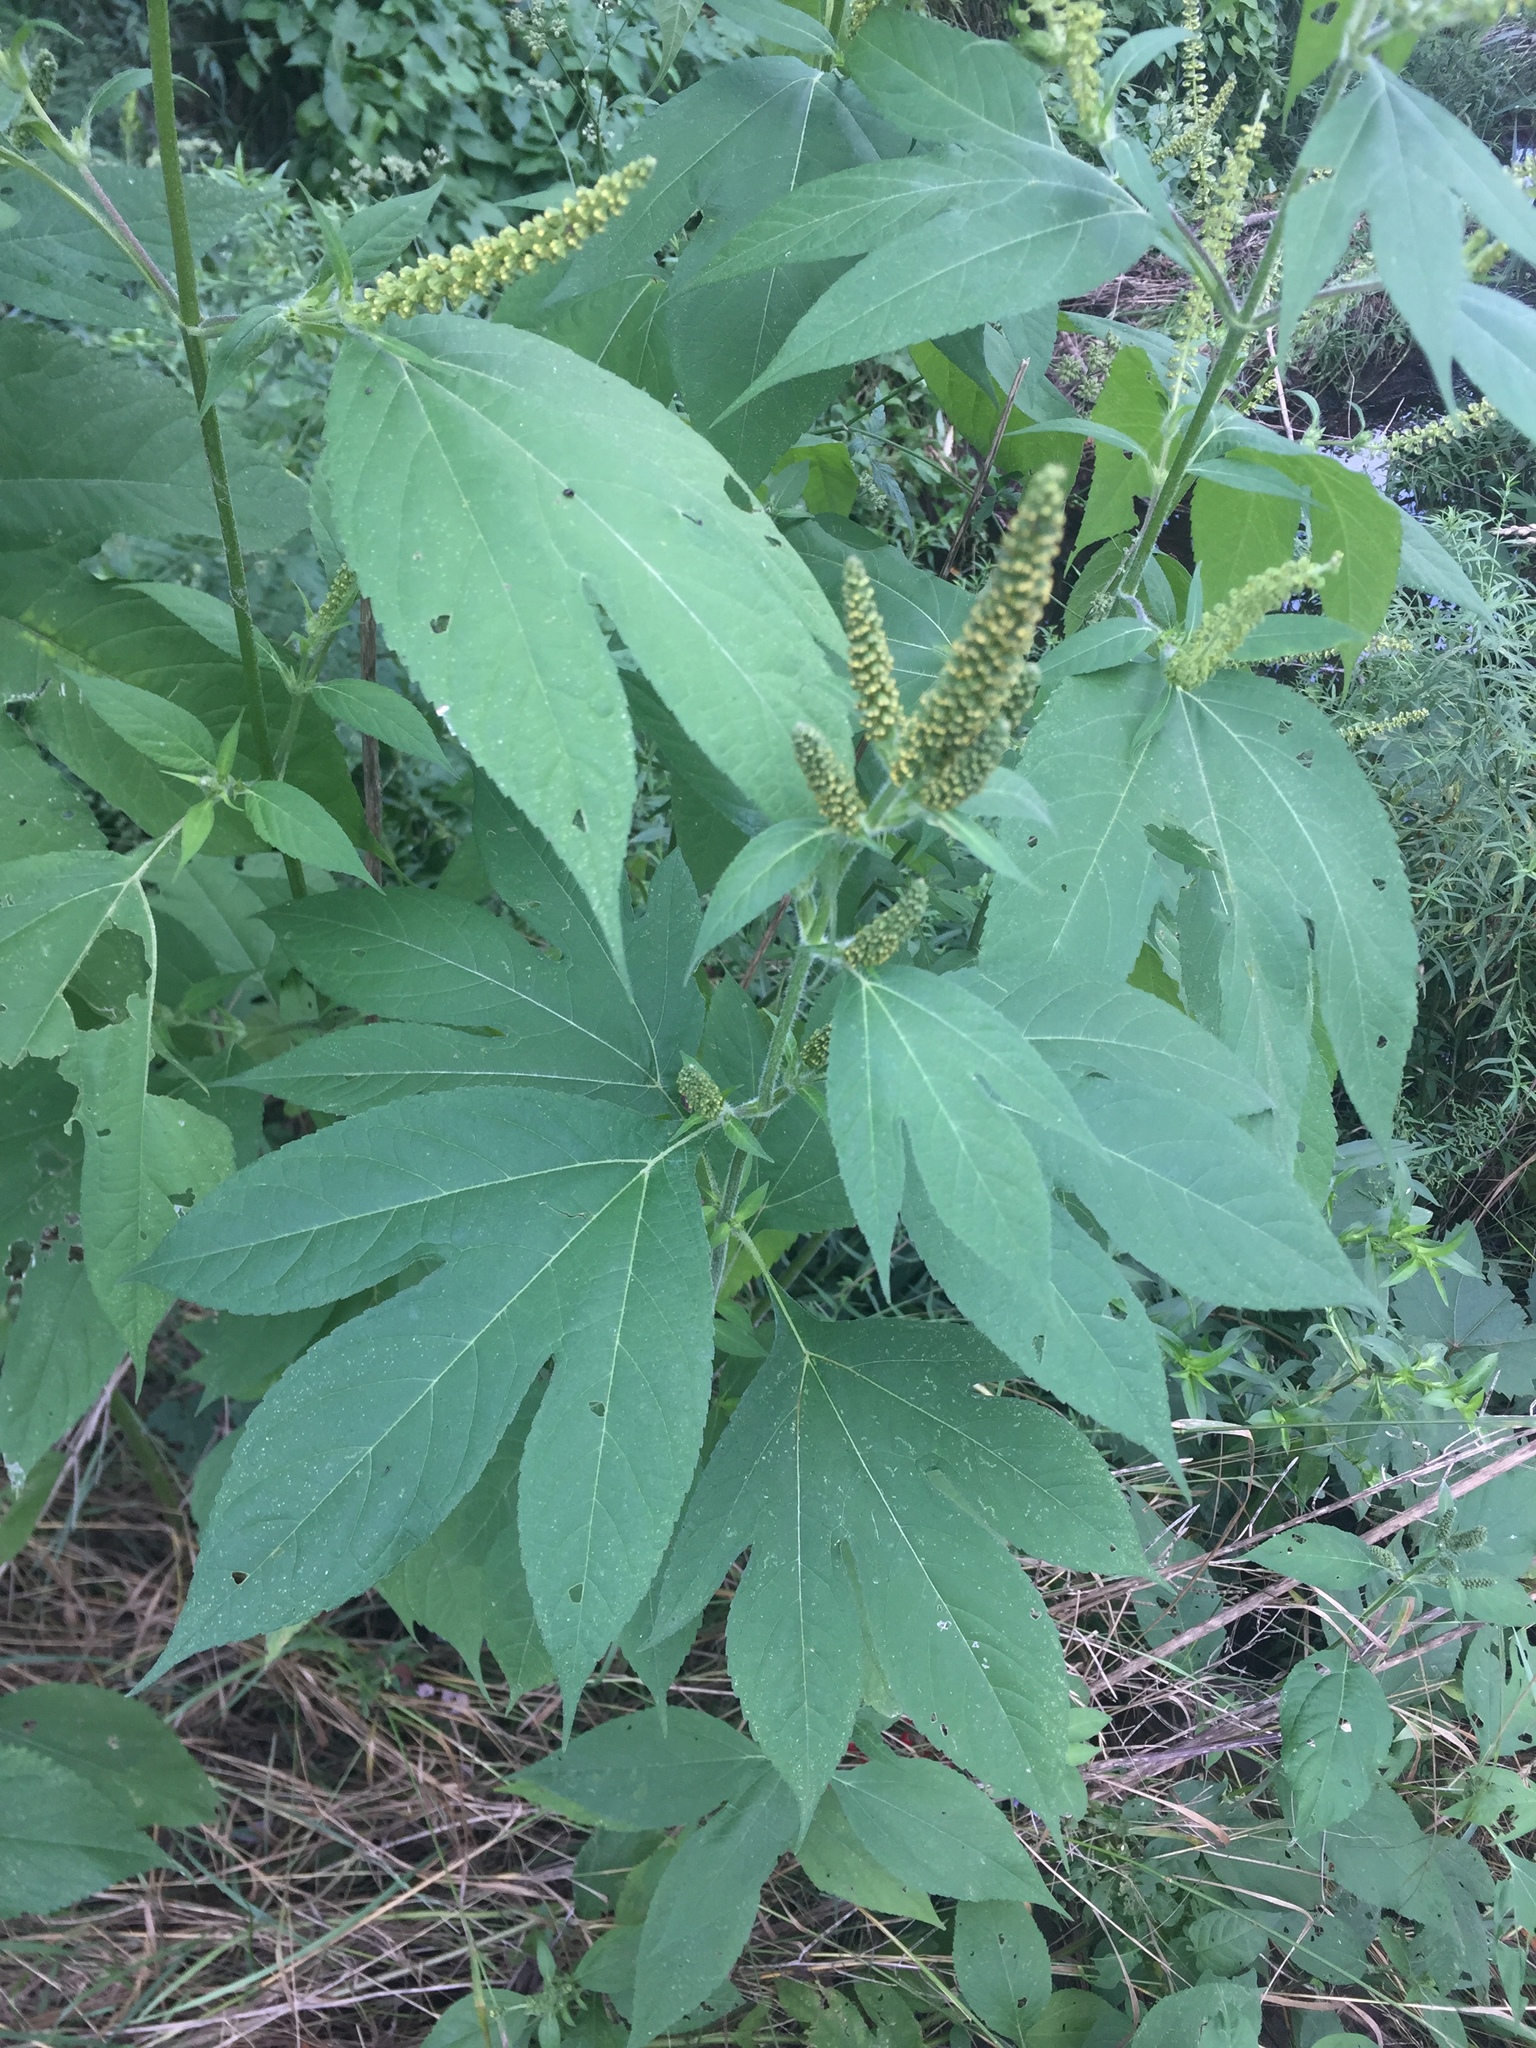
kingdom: Plantae
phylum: Tracheophyta
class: Magnoliopsida
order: Asterales
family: Asteraceae
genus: Ambrosia
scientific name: Ambrosia trifida
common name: Giant ragweed
